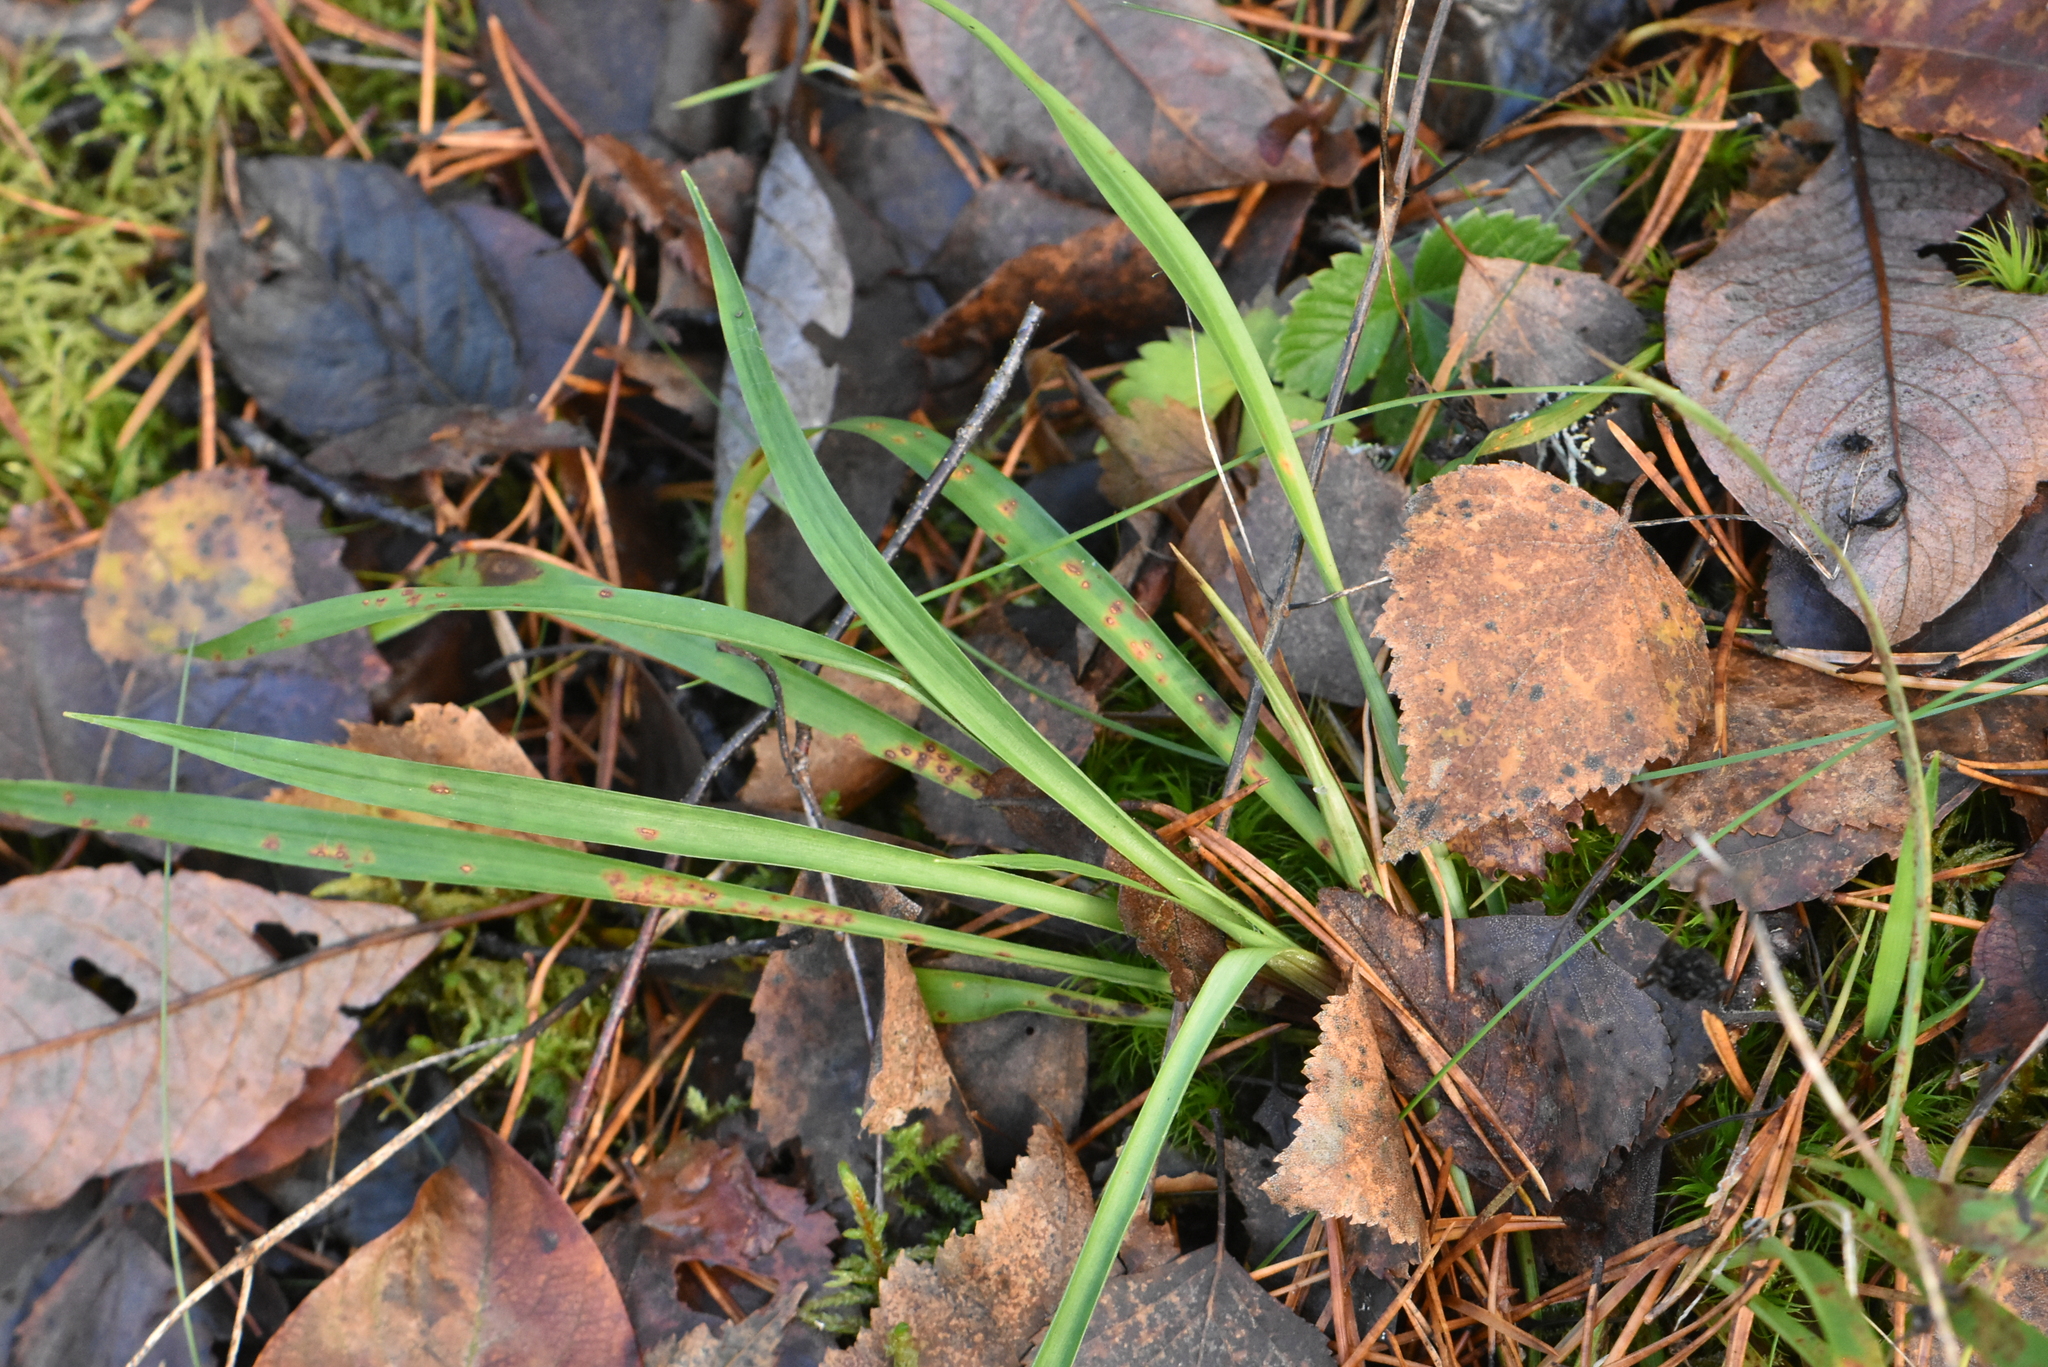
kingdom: Plantae
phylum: Tracheophyta
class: Liliopsida
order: Poales
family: Juncaceae
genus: Luzula
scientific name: Luzula pilosa
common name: Hairy wood-rush
